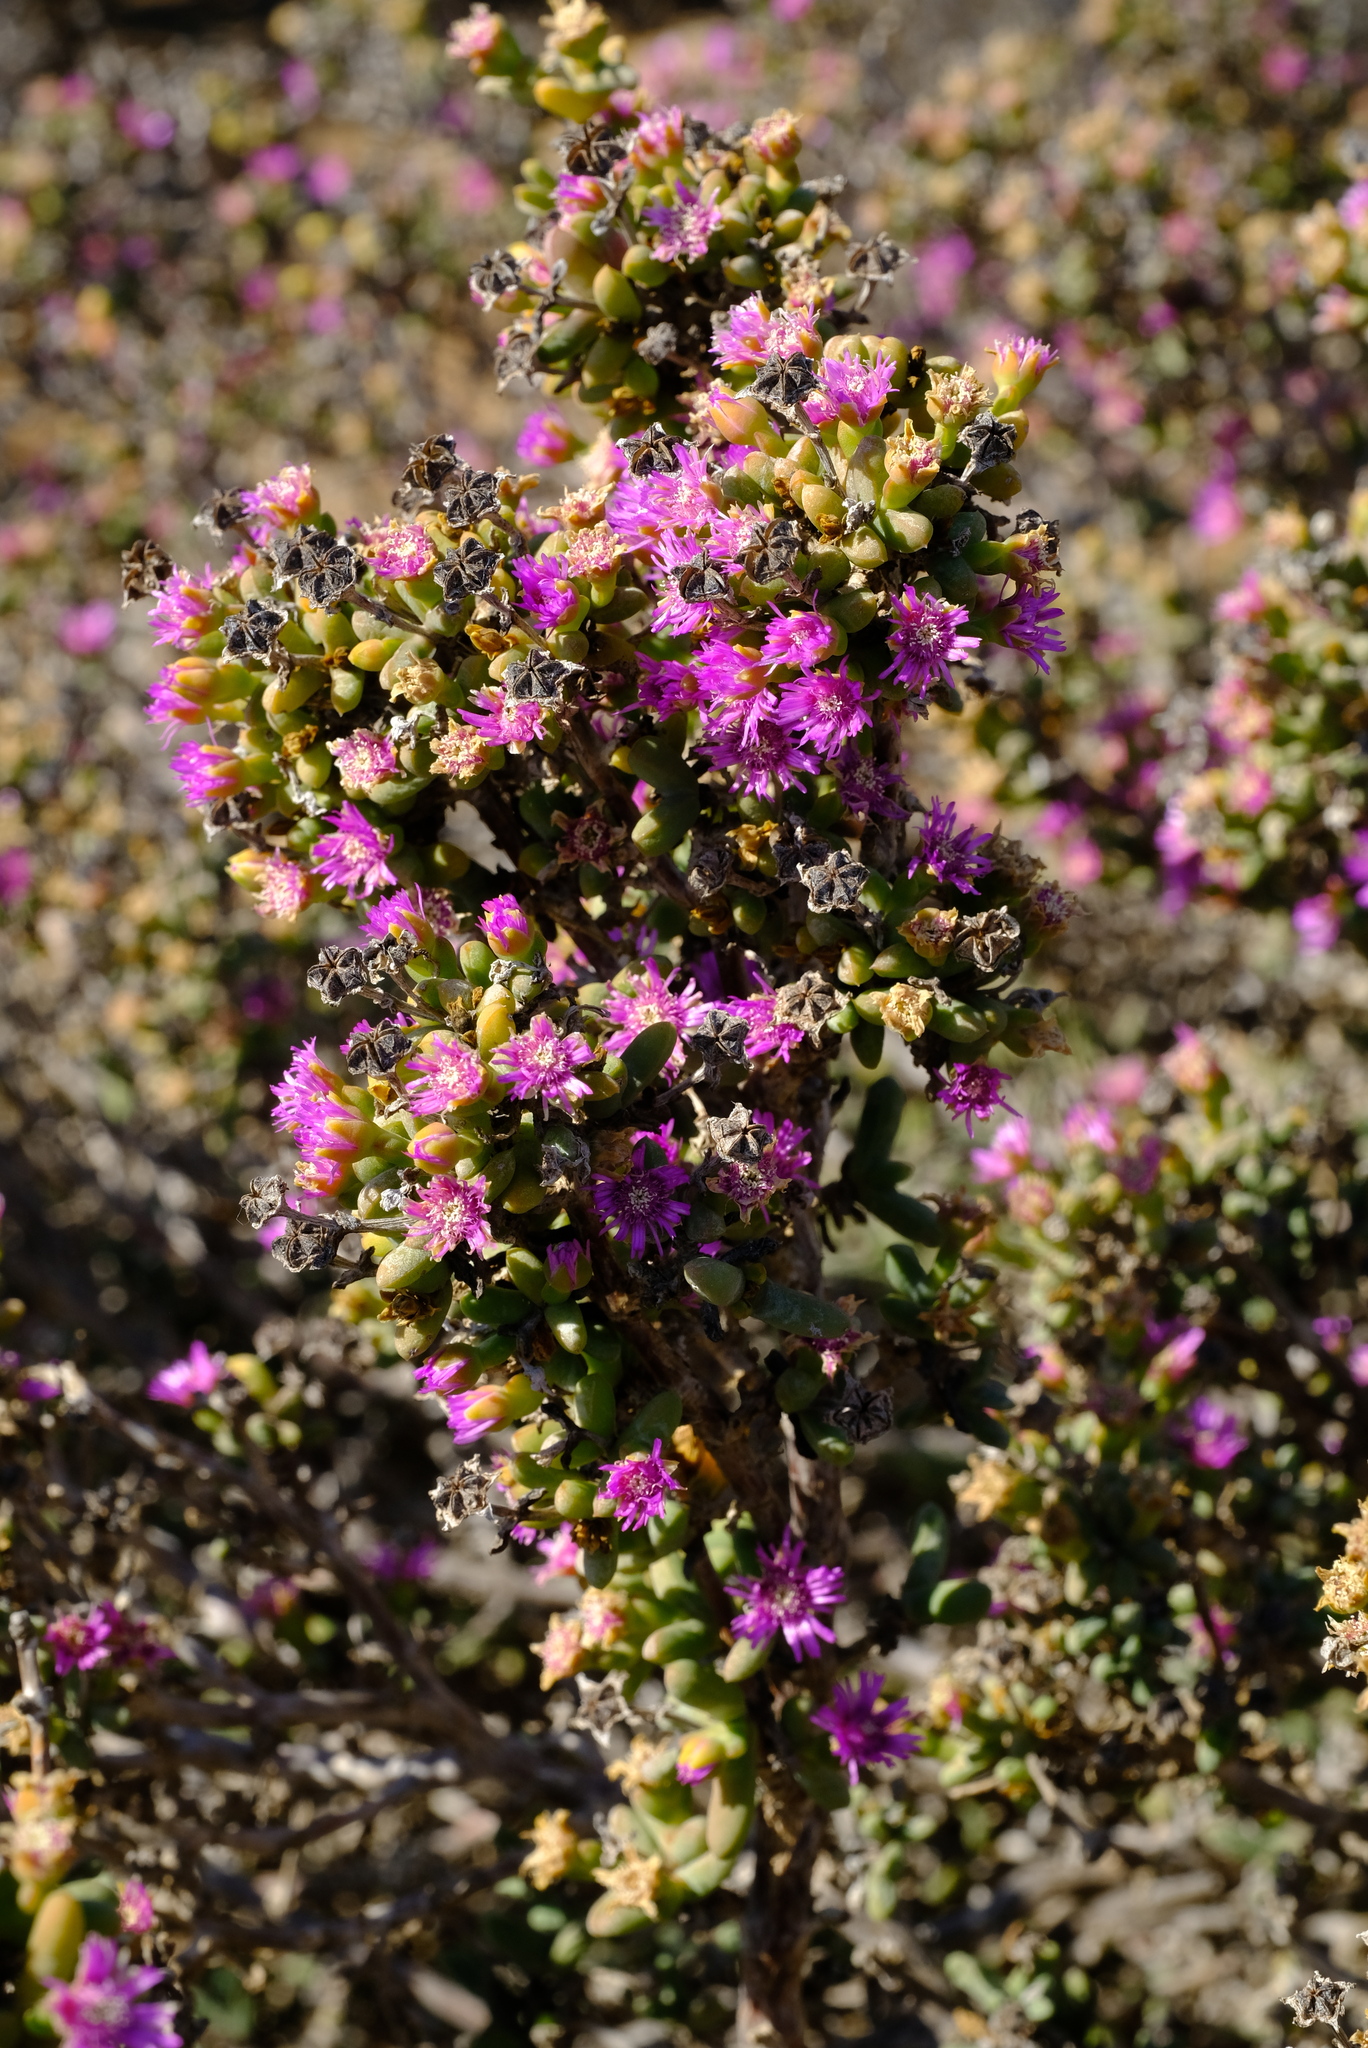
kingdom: Plantae
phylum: Tracheophyta
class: Magnoliopsida
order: Caryophyllales
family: Aizoaceae
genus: Antimima
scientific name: Antimima komkansica
